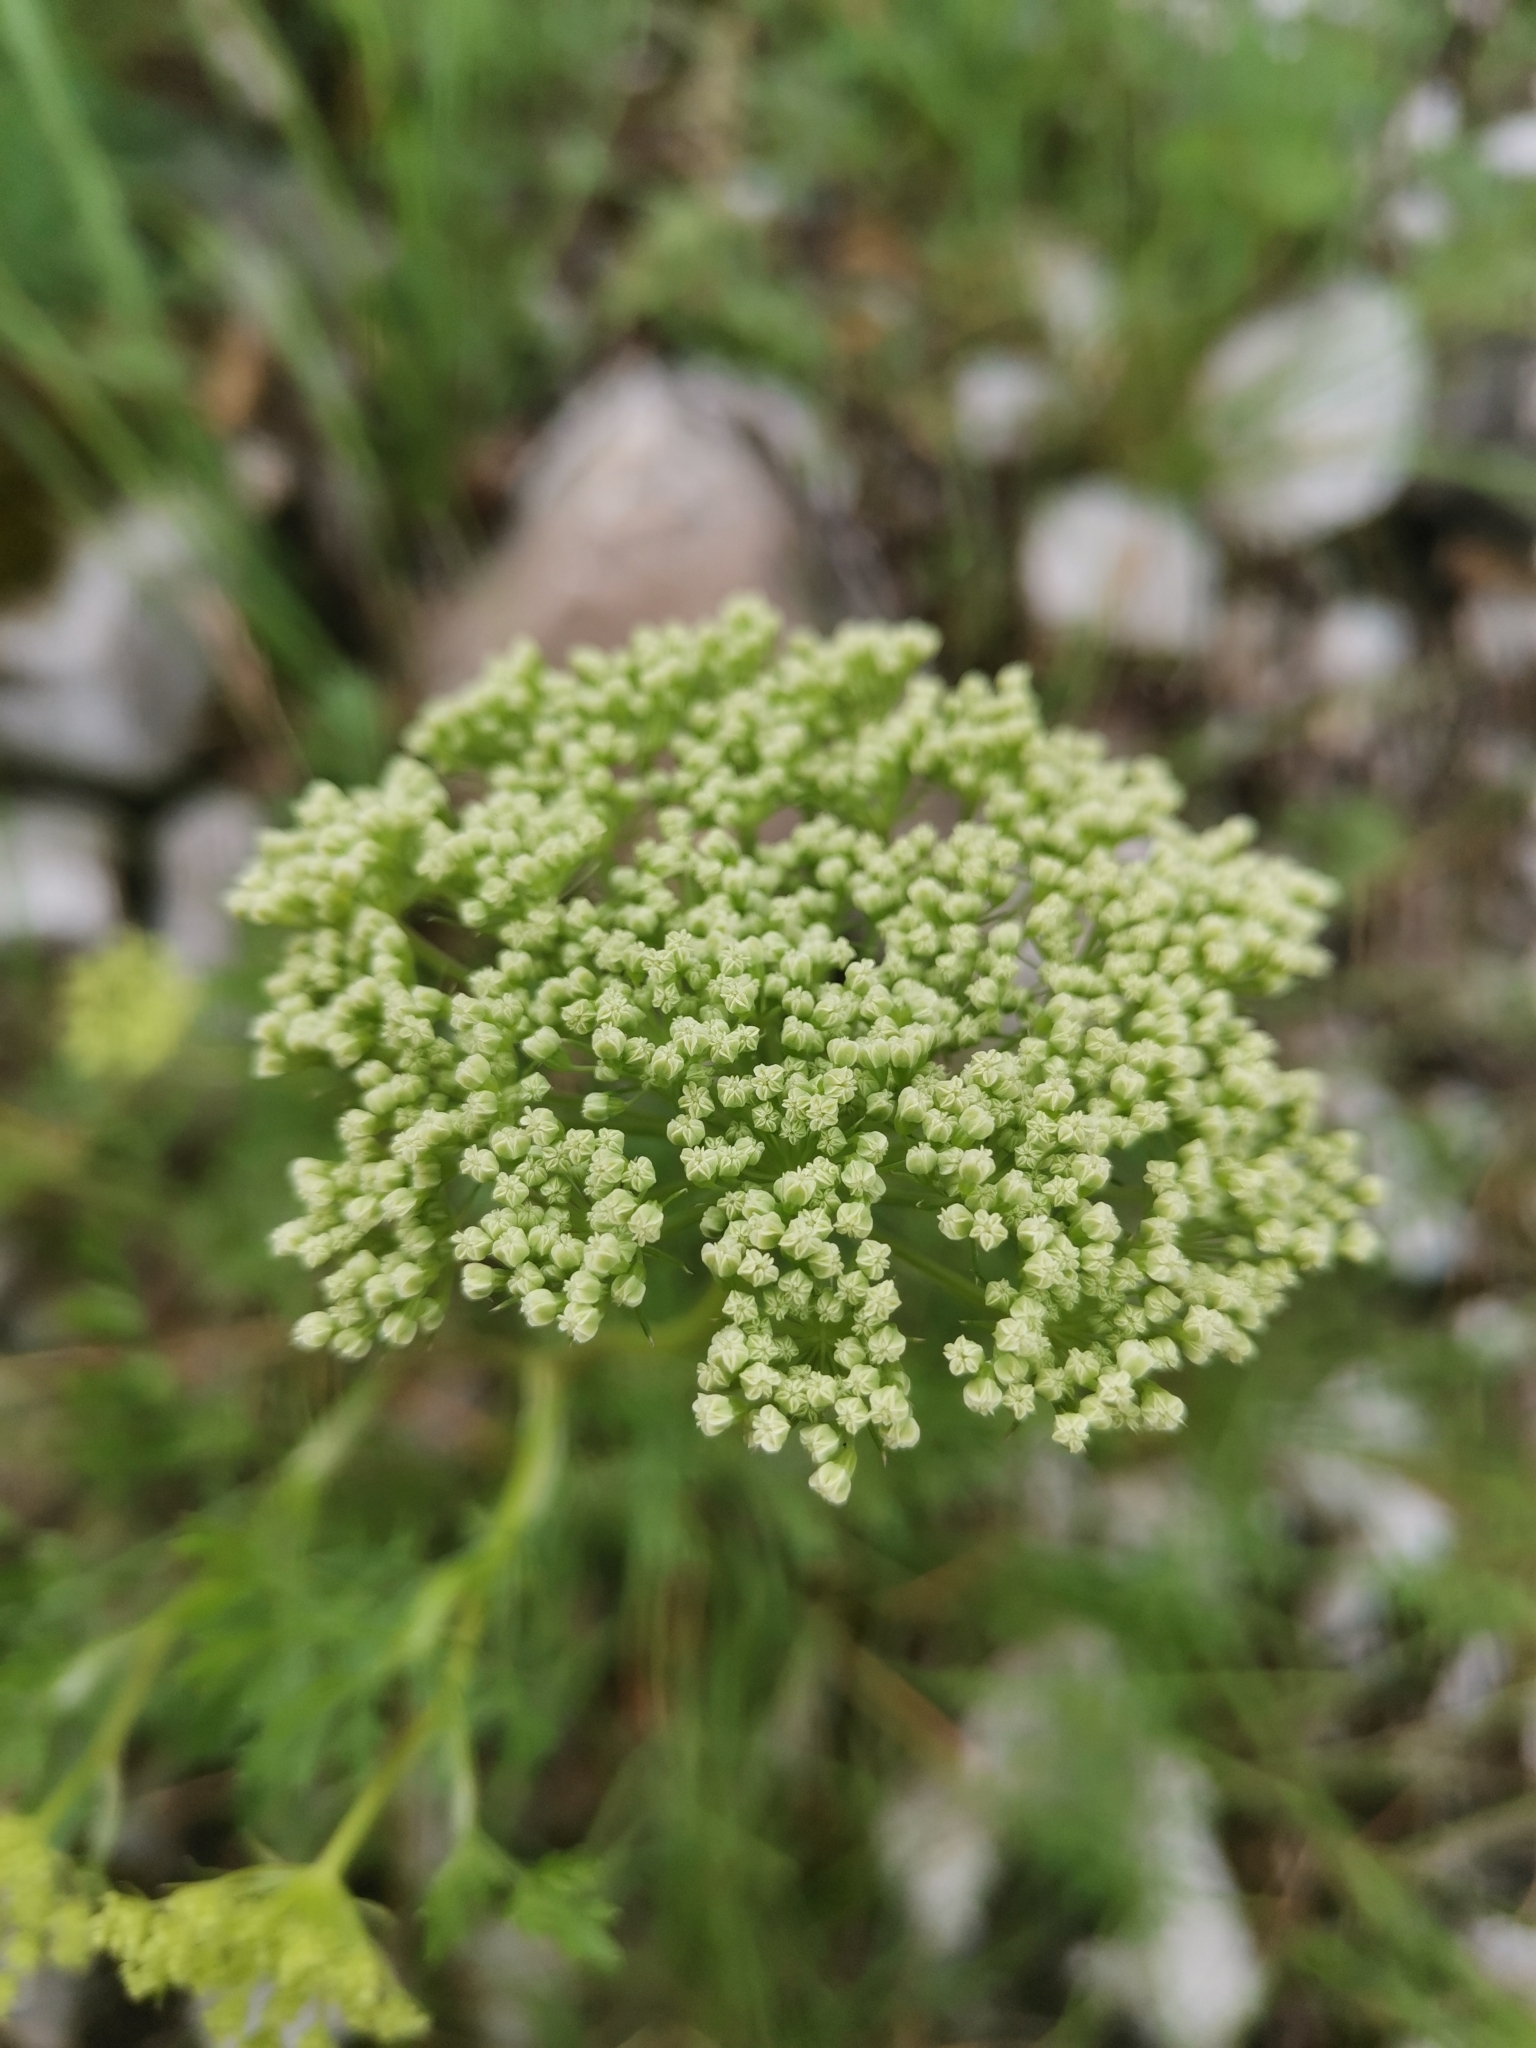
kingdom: Plantae
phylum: Tracheophyta
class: Magnoliopsida
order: Apiales
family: Apiaceae
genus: Katapsuxis
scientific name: Katapsuxis silaifolia
